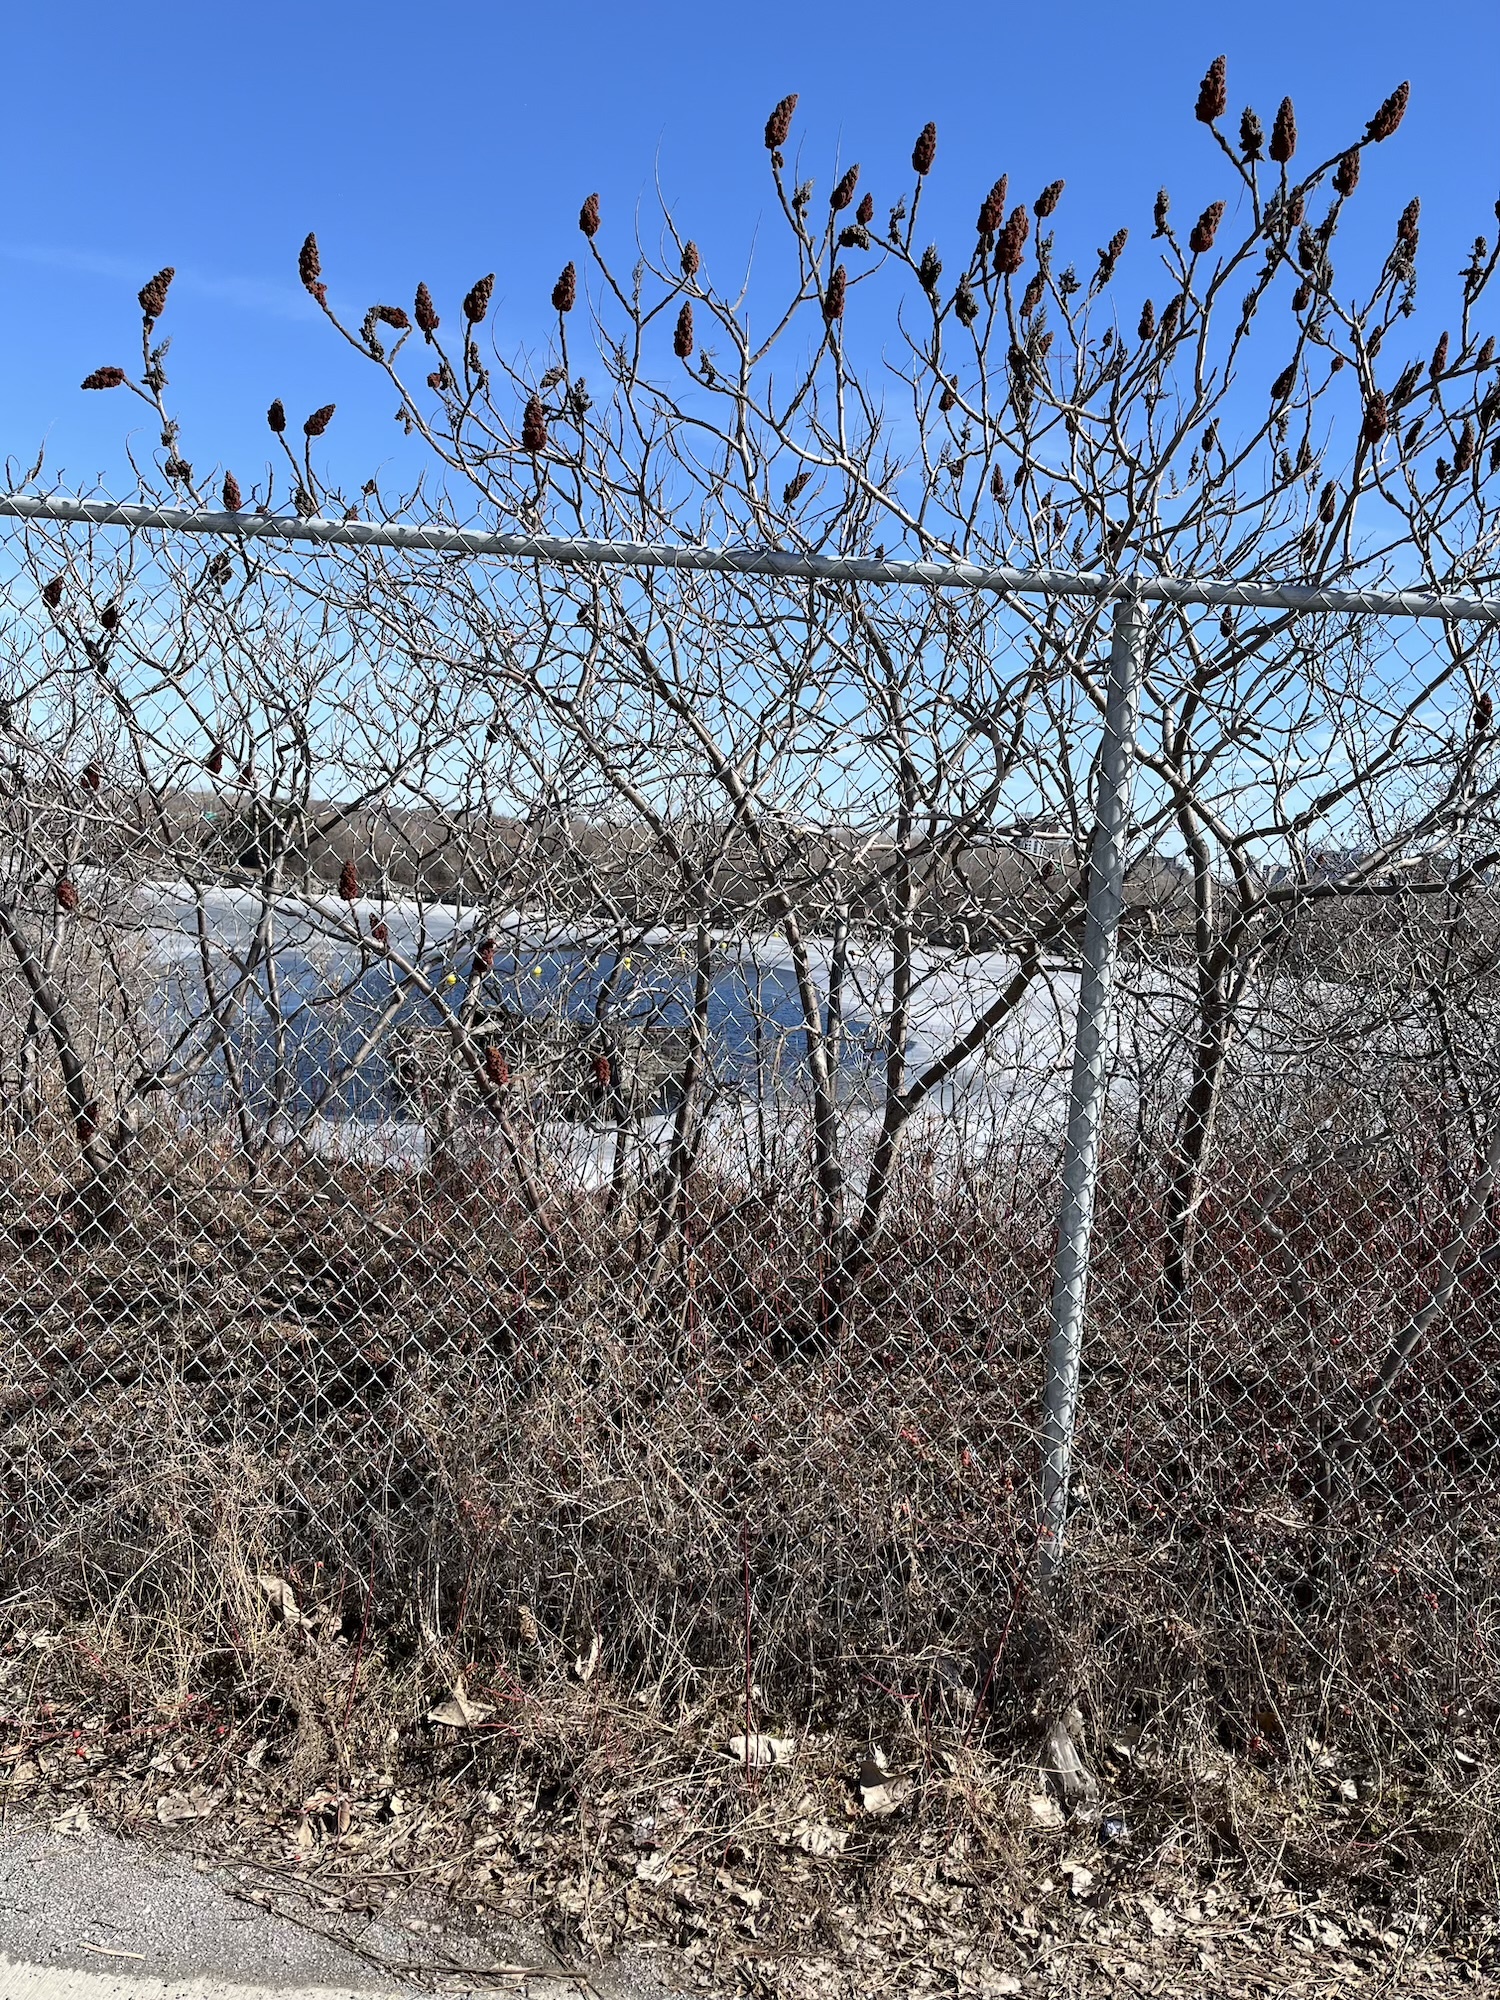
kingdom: Plantae
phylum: Tracheophyta
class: Magnoliopsida
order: Sapindales
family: Anacardiaceae
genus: Rhus
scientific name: Rhus typhina
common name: Staghorn sumac
